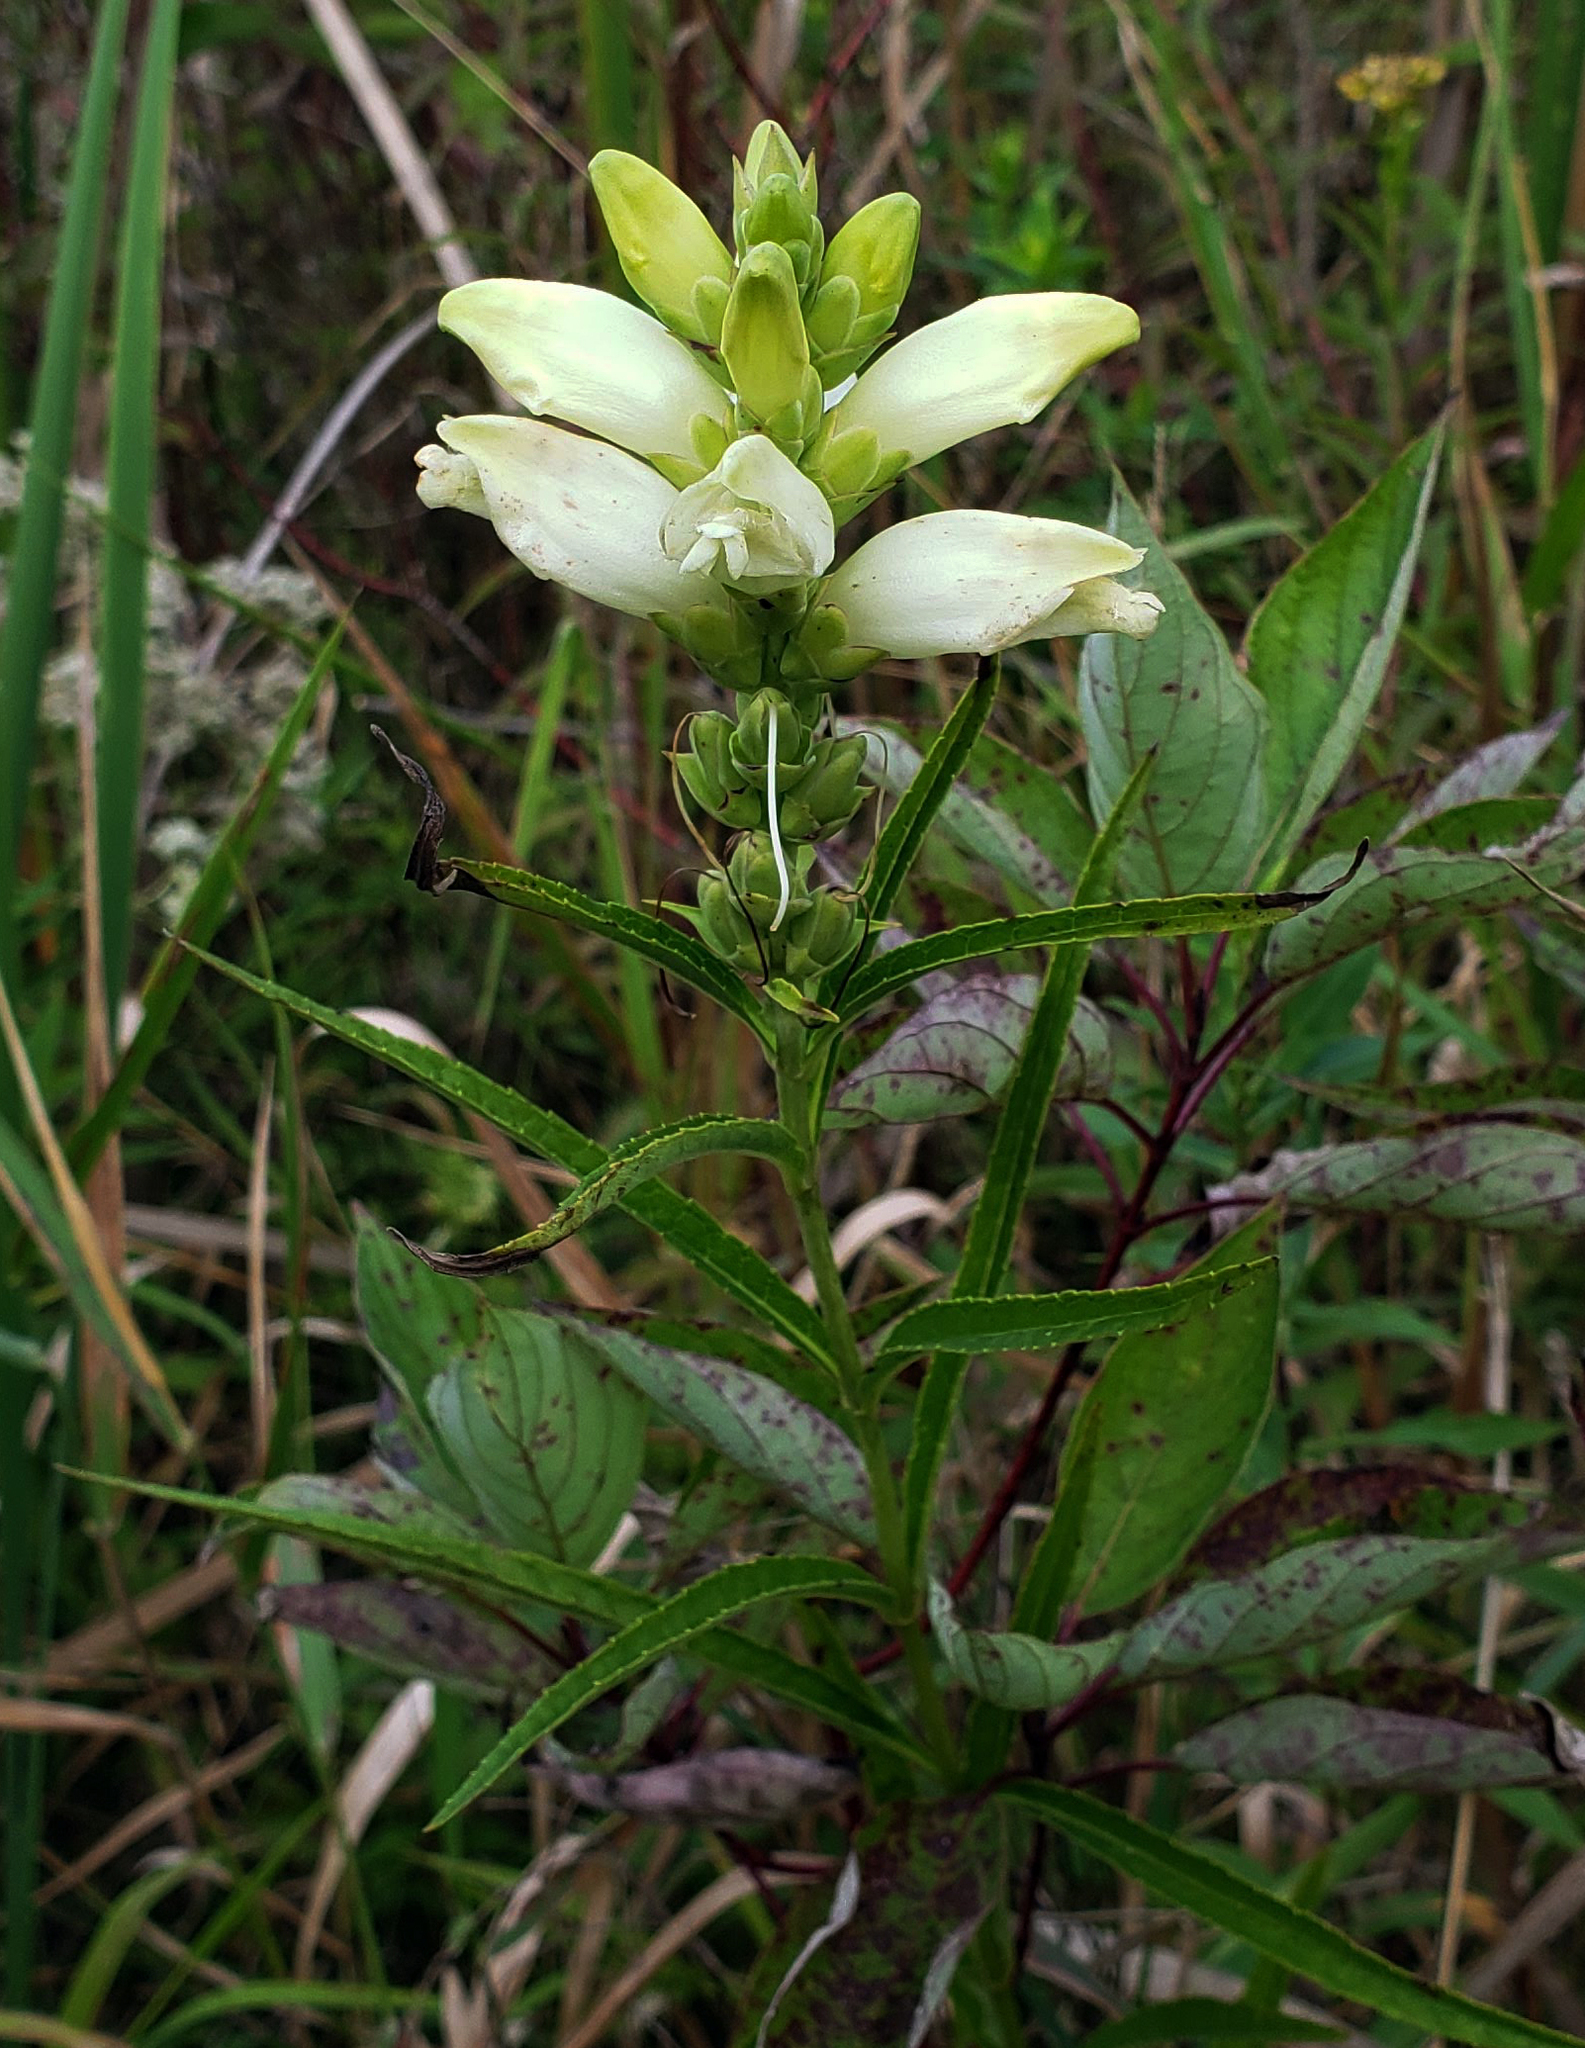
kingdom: Plantae
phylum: Tracheophyta
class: Magnoliopsida
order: Lamiales
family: Plantaginaceae
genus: Chelone
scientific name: Chelone glabra
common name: Snakehead
